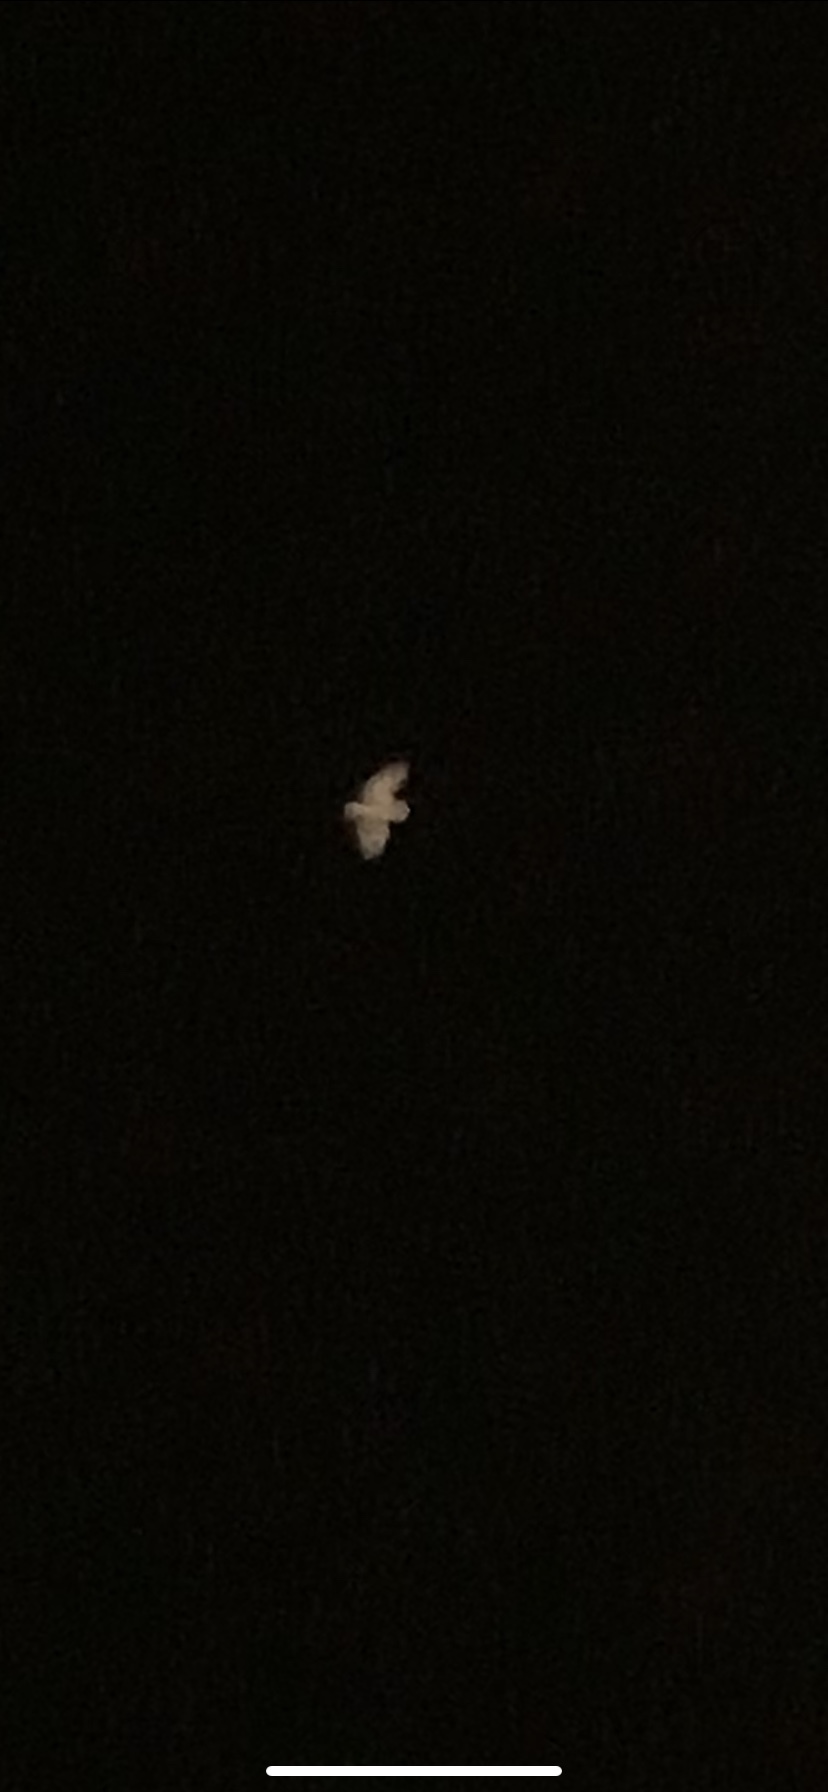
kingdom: Animalia
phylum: Chordata
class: Aves
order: Strigiformes
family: Tytonidae
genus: Tyto
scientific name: Tyto alba
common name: Barn owl
